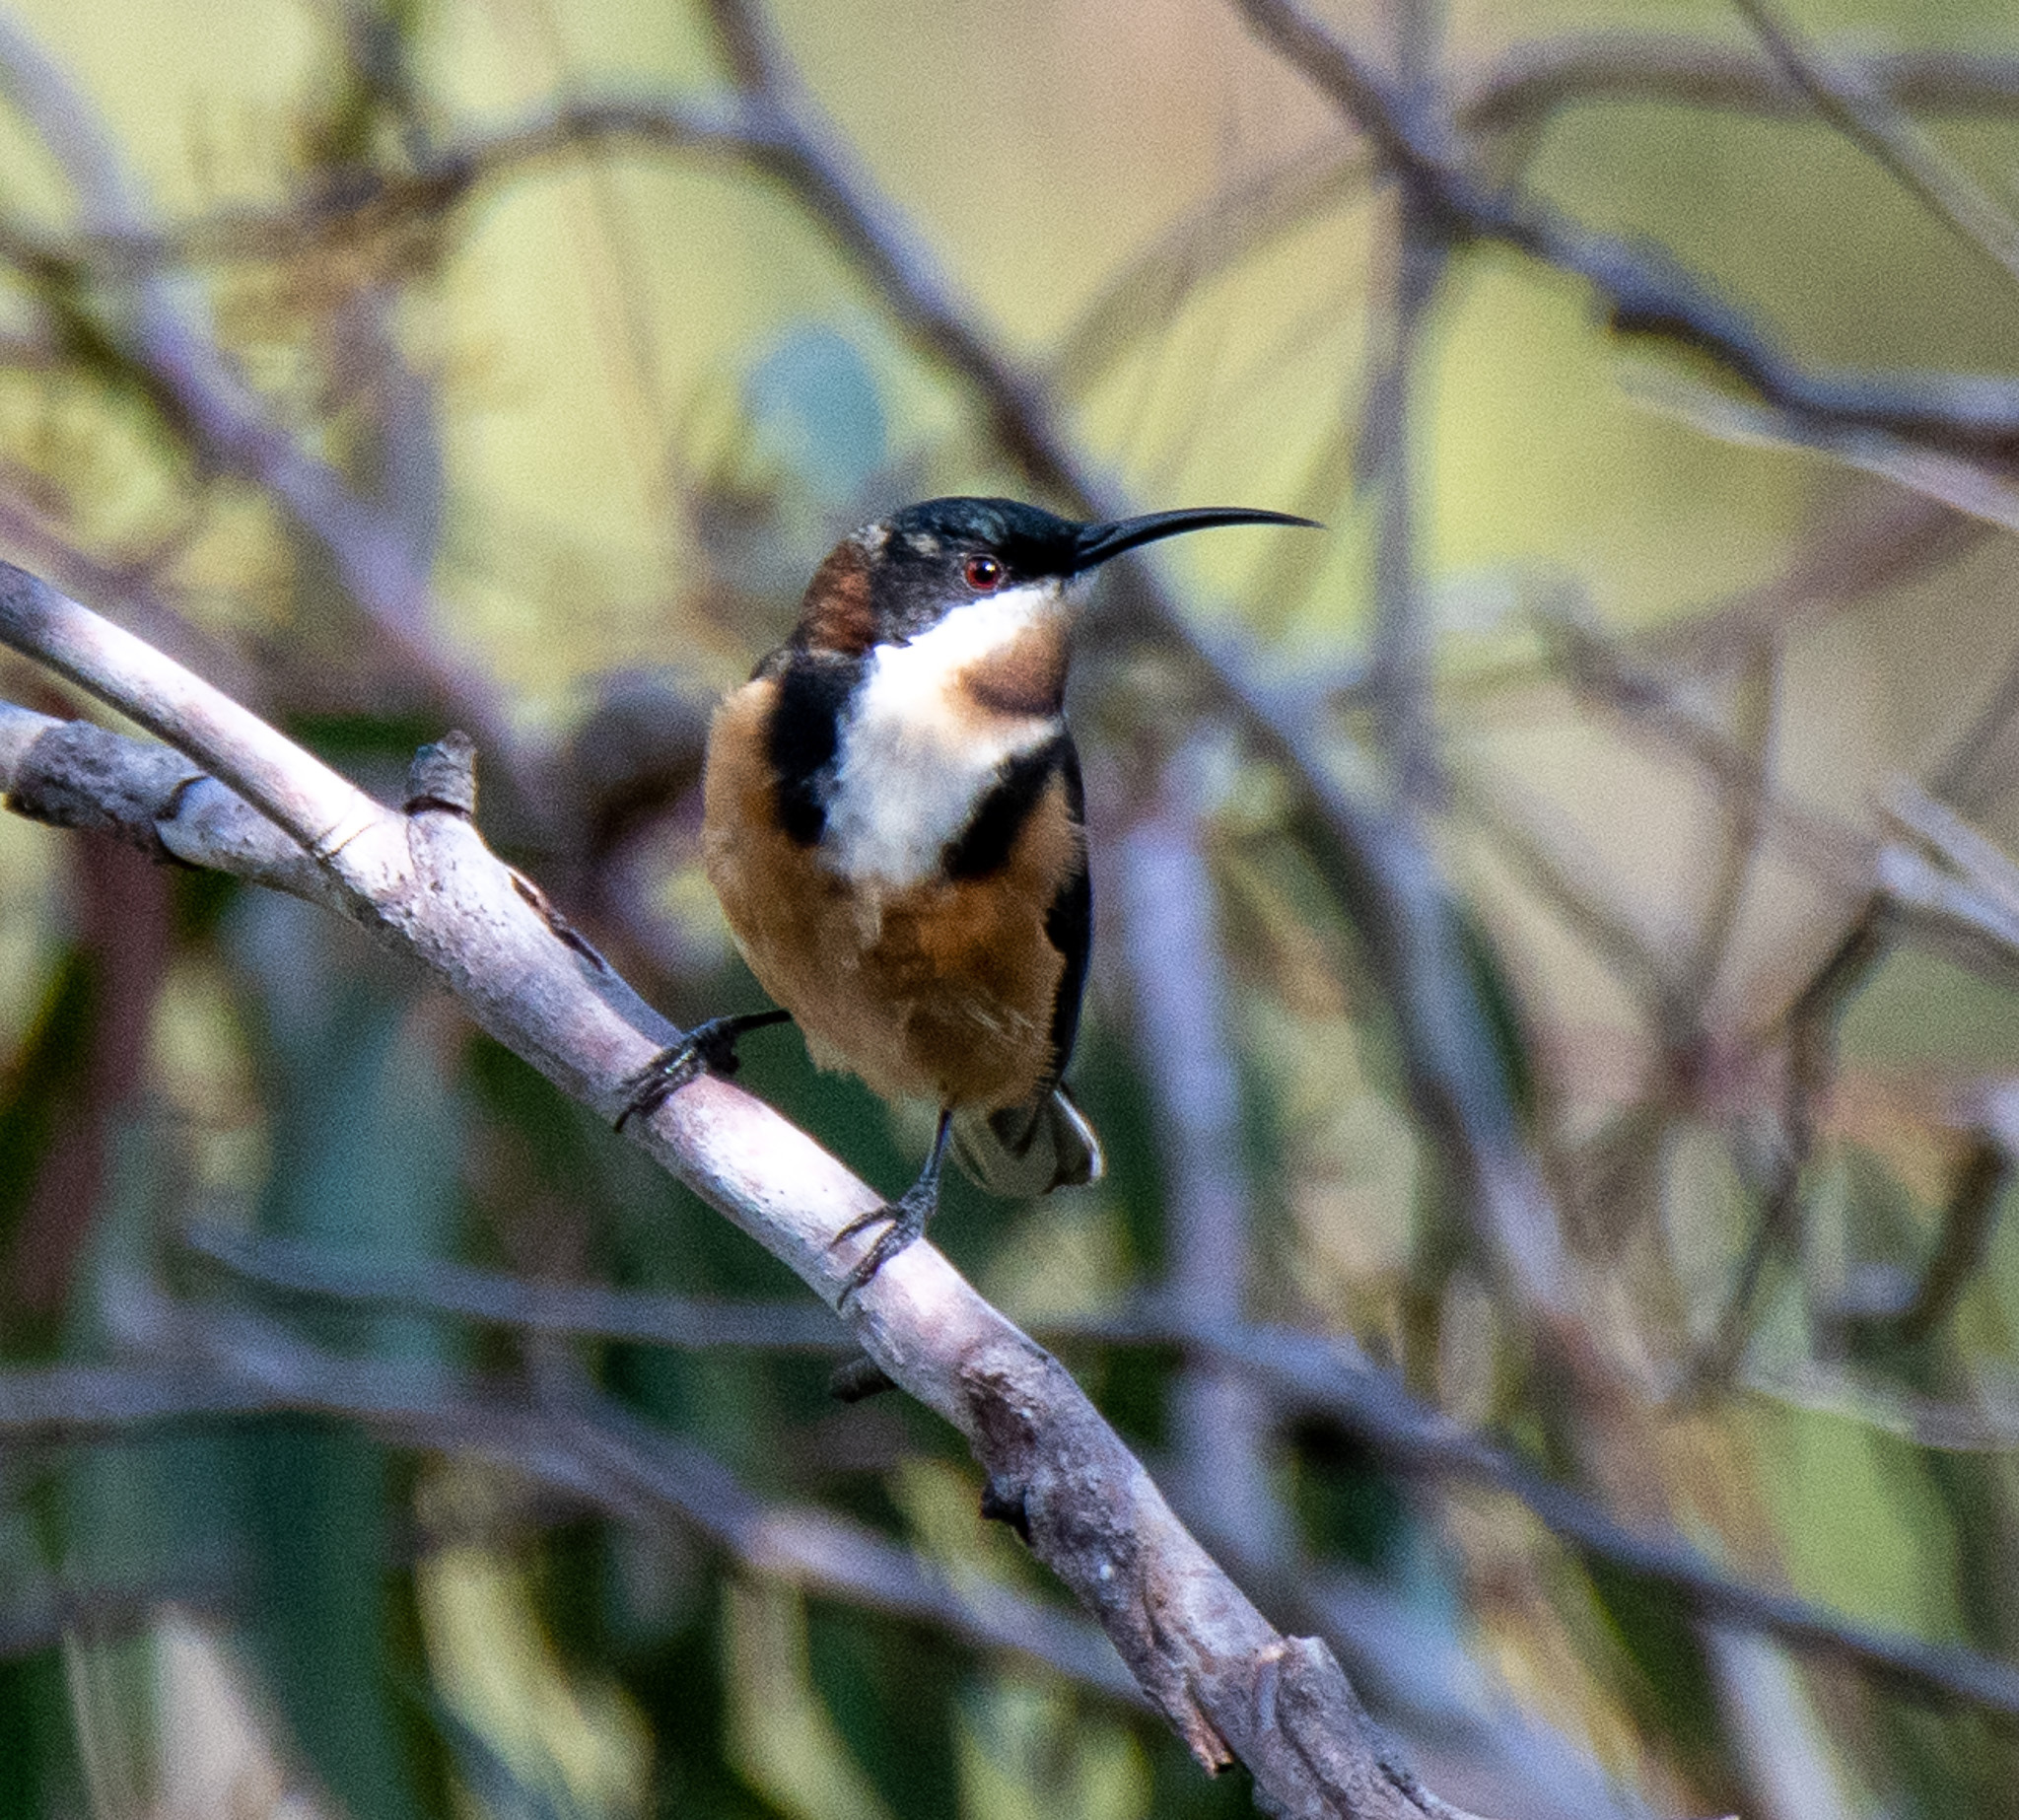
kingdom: Animalia
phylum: Chordata
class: Aves
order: Passeriformes
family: Meliphagidae
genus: Acanthorhynchus
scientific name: Acanthorhynchus tenuirostris
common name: Eastern spinebill
